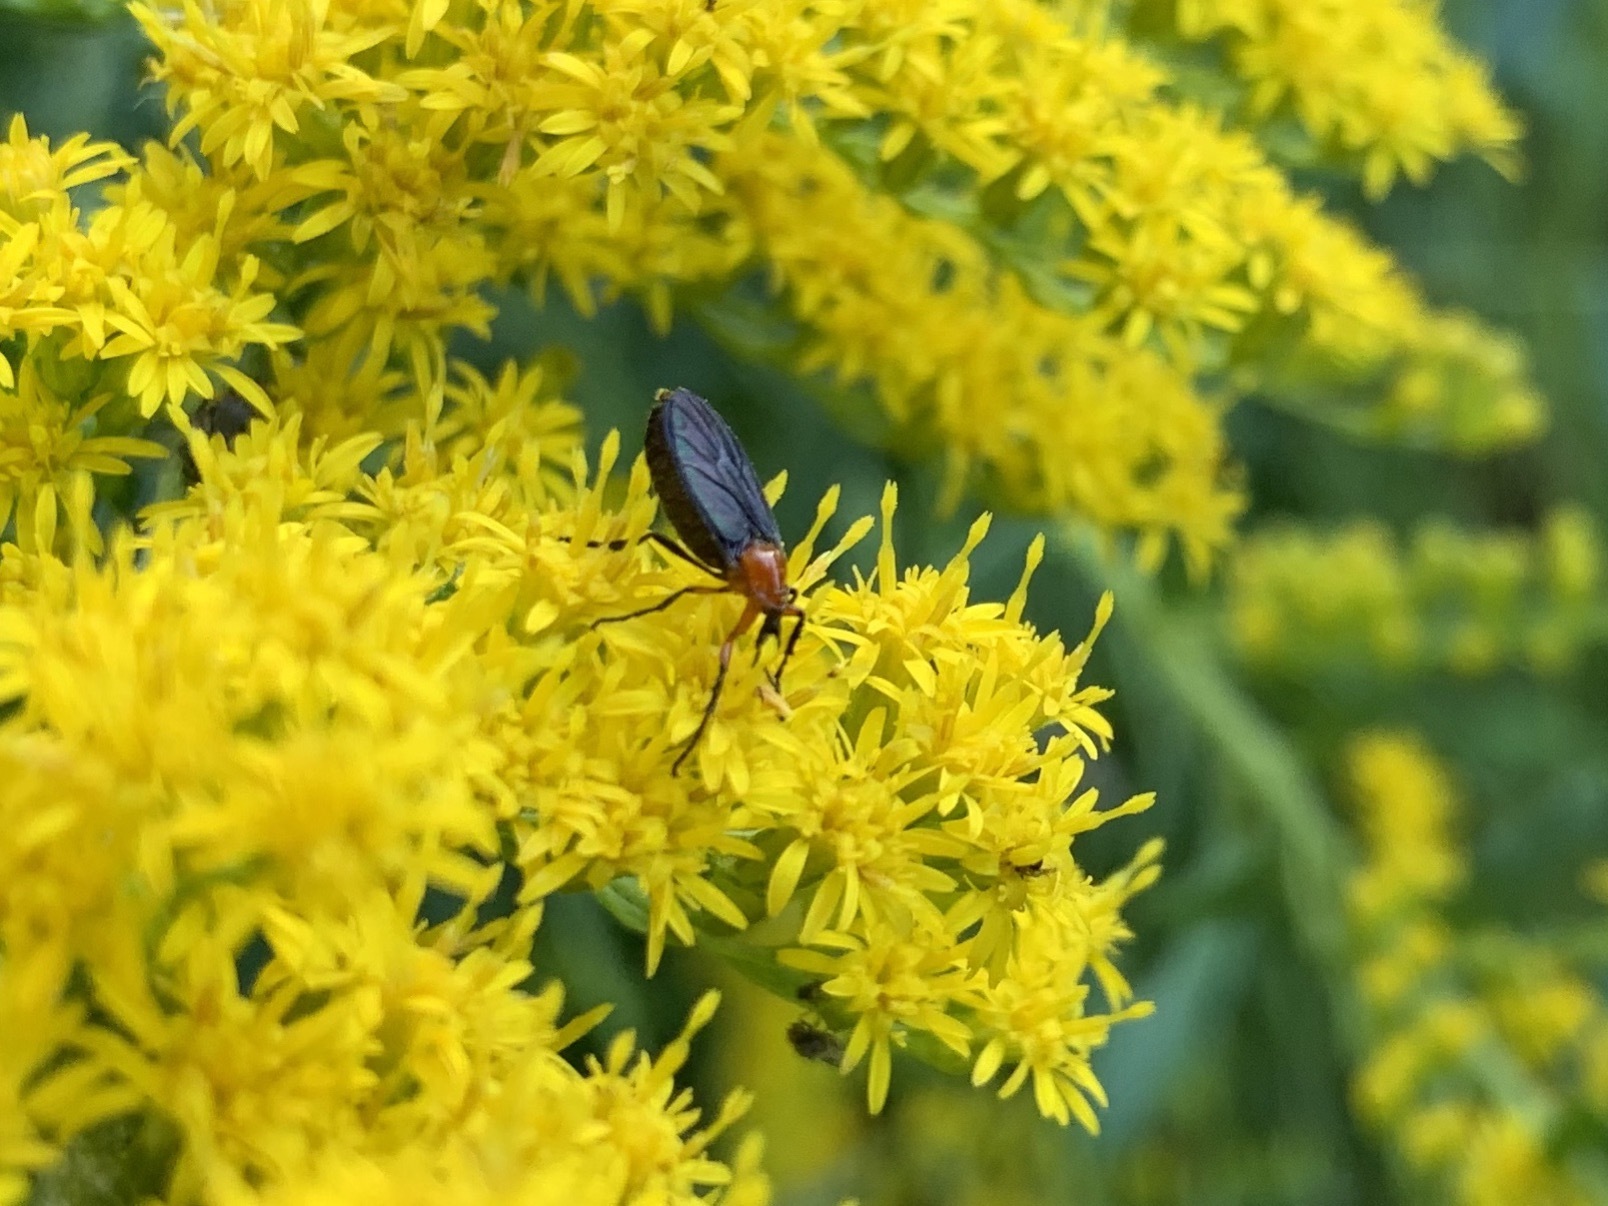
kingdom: Animalia
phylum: Arthropoda
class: Insecta
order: Diptera
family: Bibionidae
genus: Dilophus
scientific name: Dilophus spinipes
